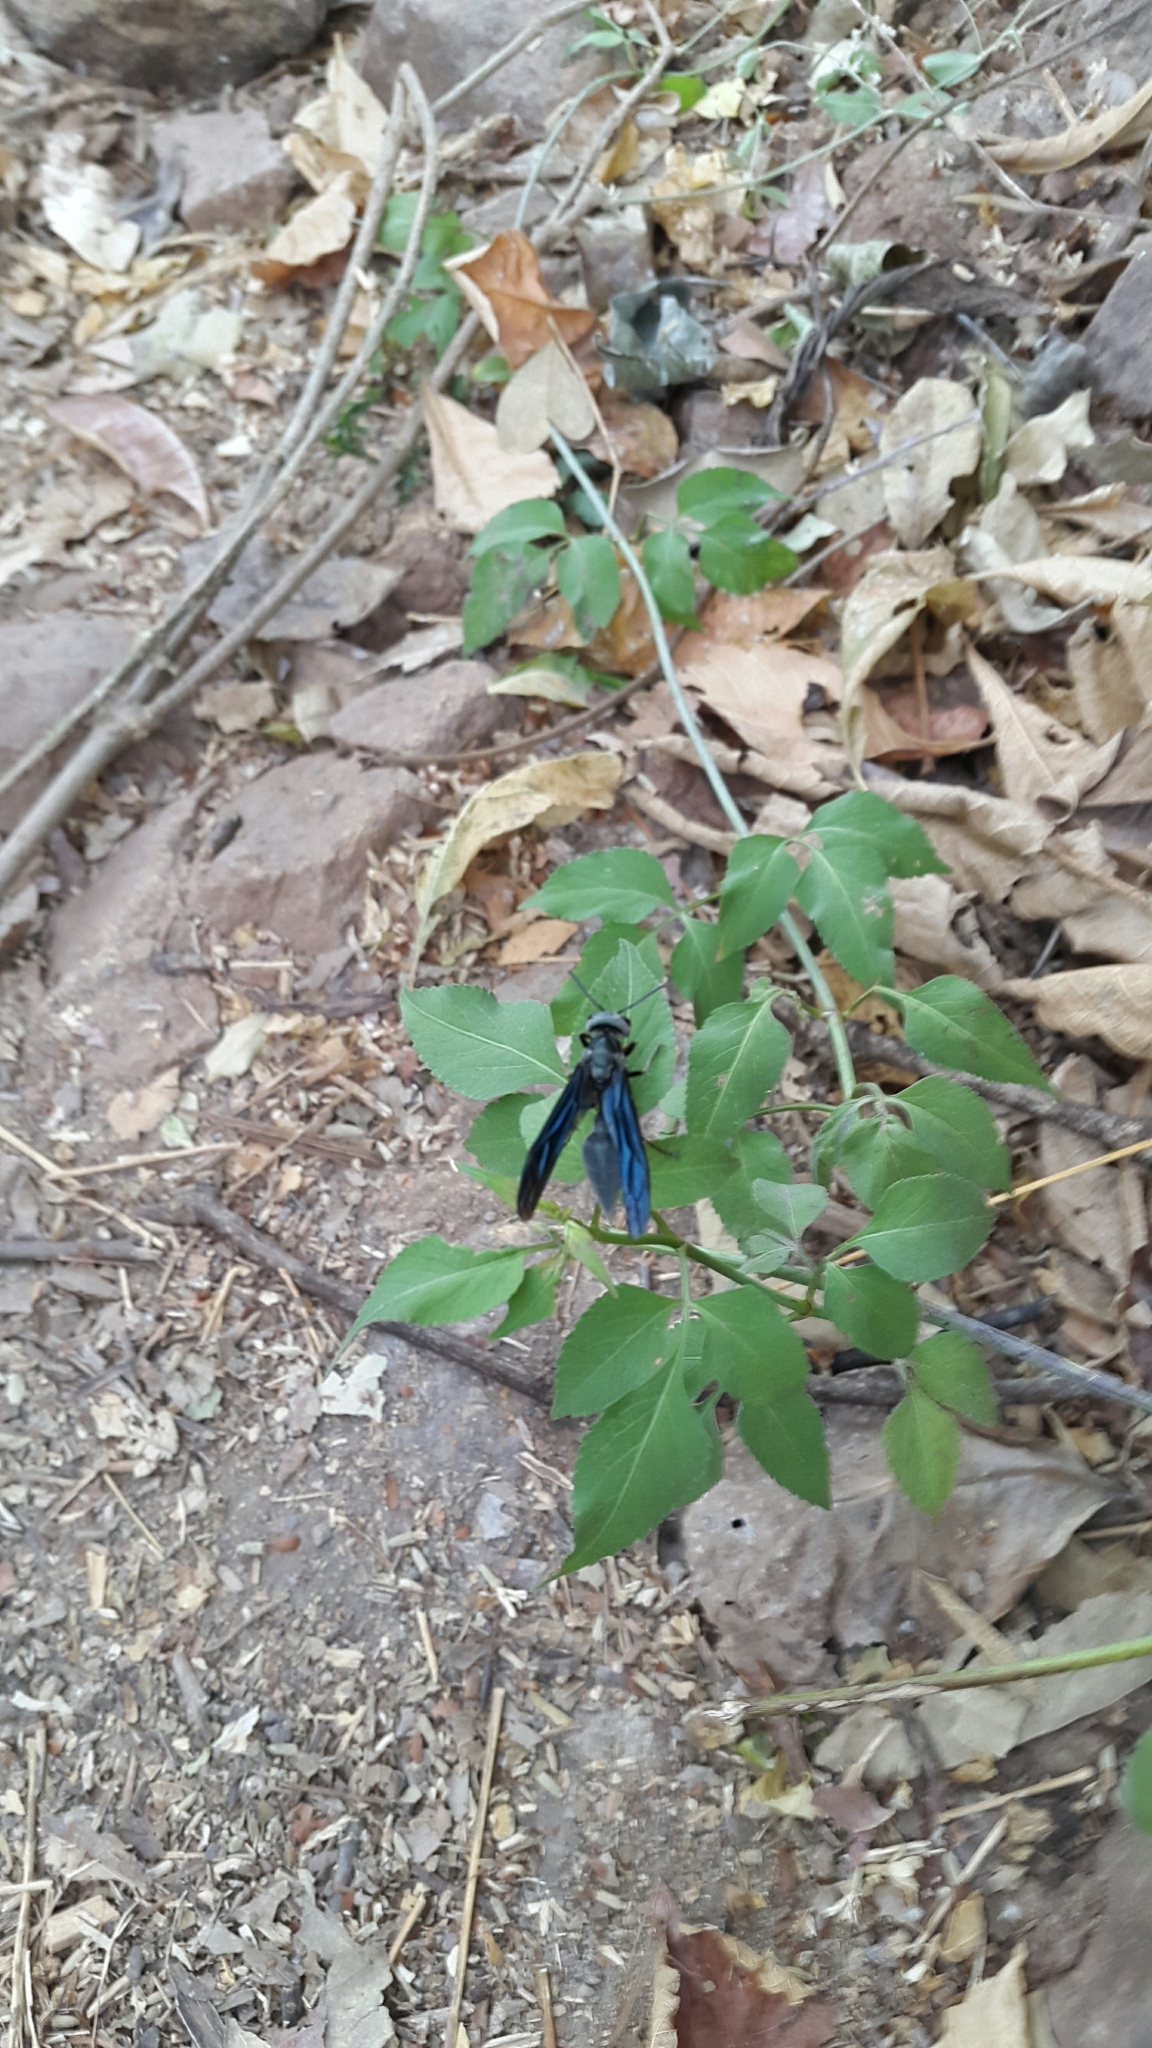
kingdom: Animalia
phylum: Arthropoda
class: Insecta
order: Hymenoptera
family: Vespidae
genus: Synoeca
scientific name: Synoeca septentrionalis
